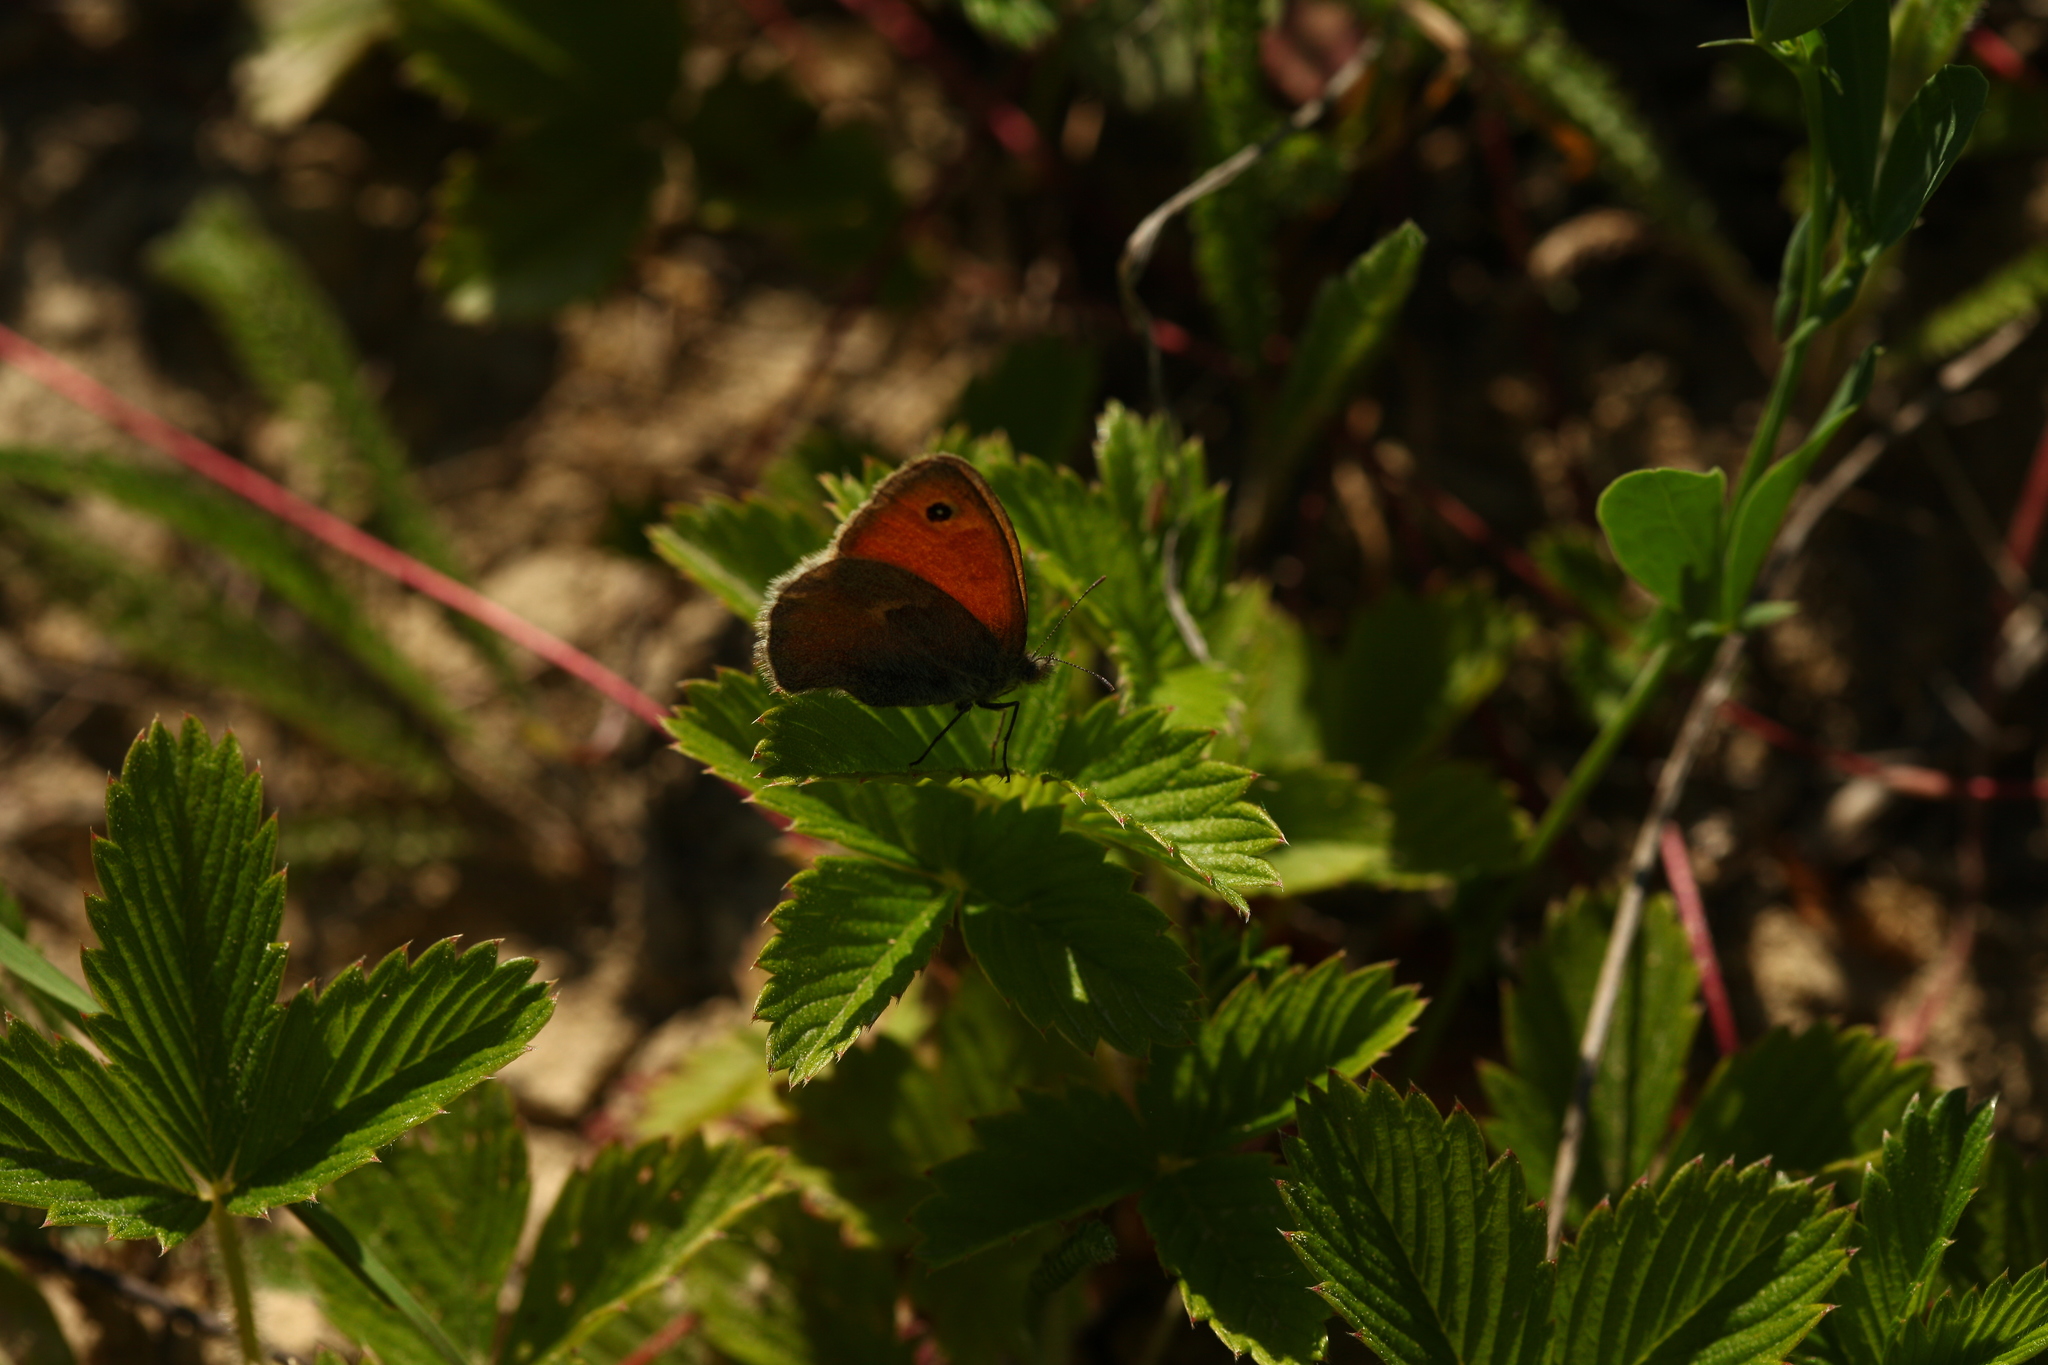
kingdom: Animalia
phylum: Arthropoda
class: Insecta
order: Lepidoptera
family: Nymphalidae
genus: Coenonympha
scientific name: Coenonympha pamphilus
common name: Small heath
